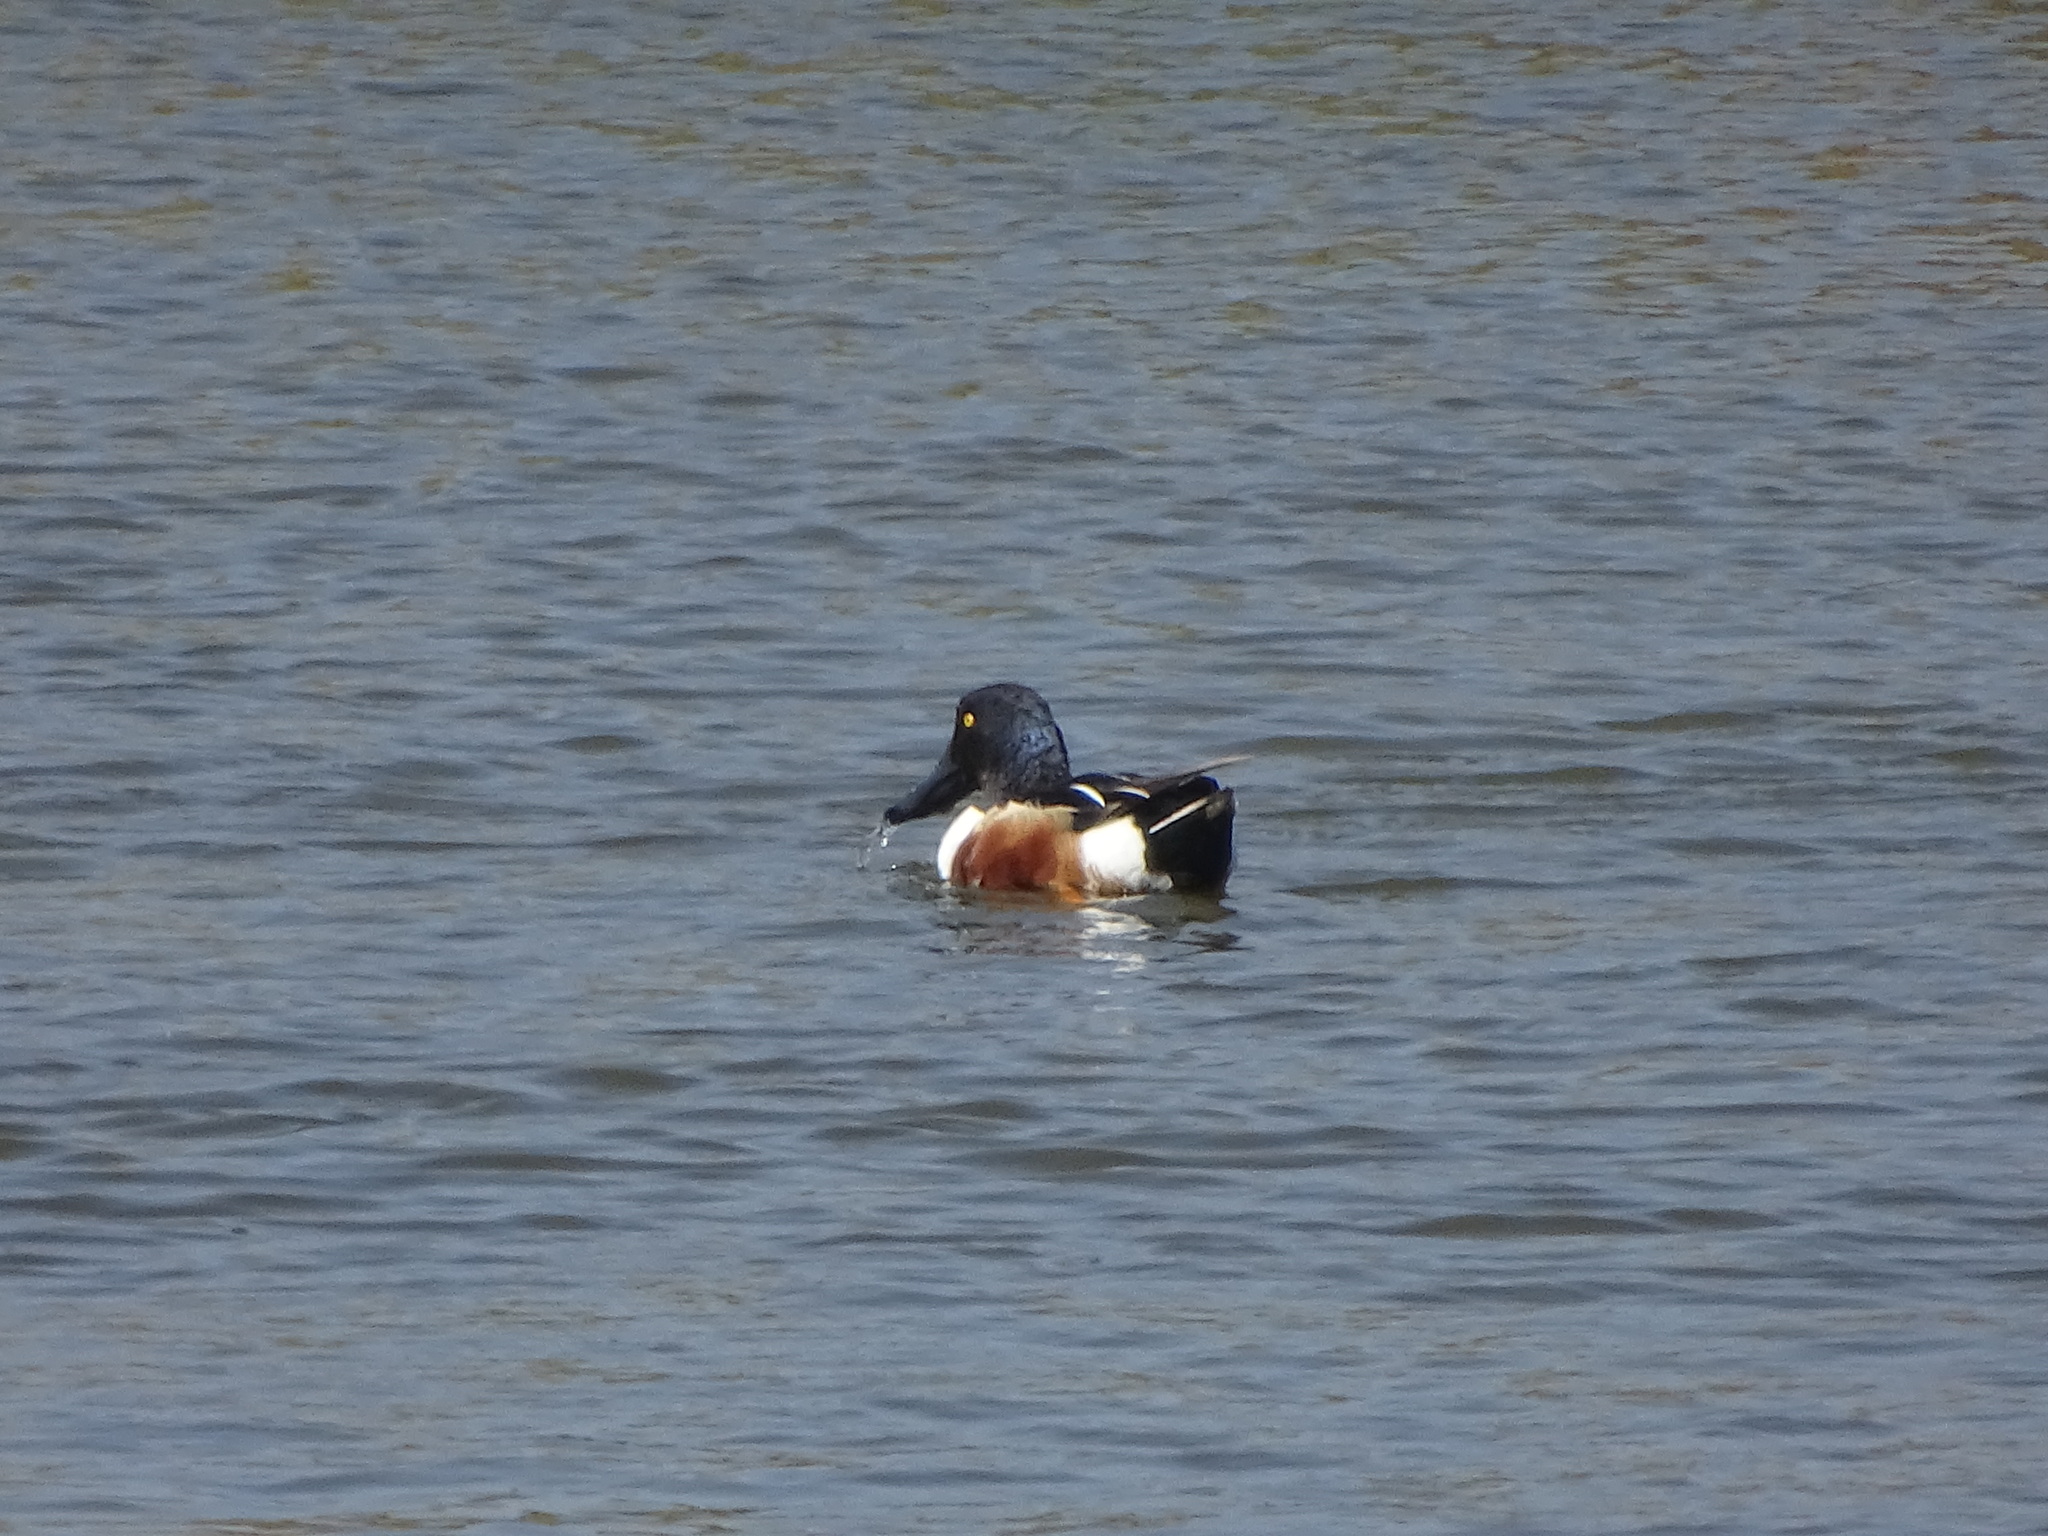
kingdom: Animalia
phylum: Chordata
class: Aves
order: Anseriformes
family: Anatidae
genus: Spatula
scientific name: Spatula clypeata
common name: Northern shoveler
